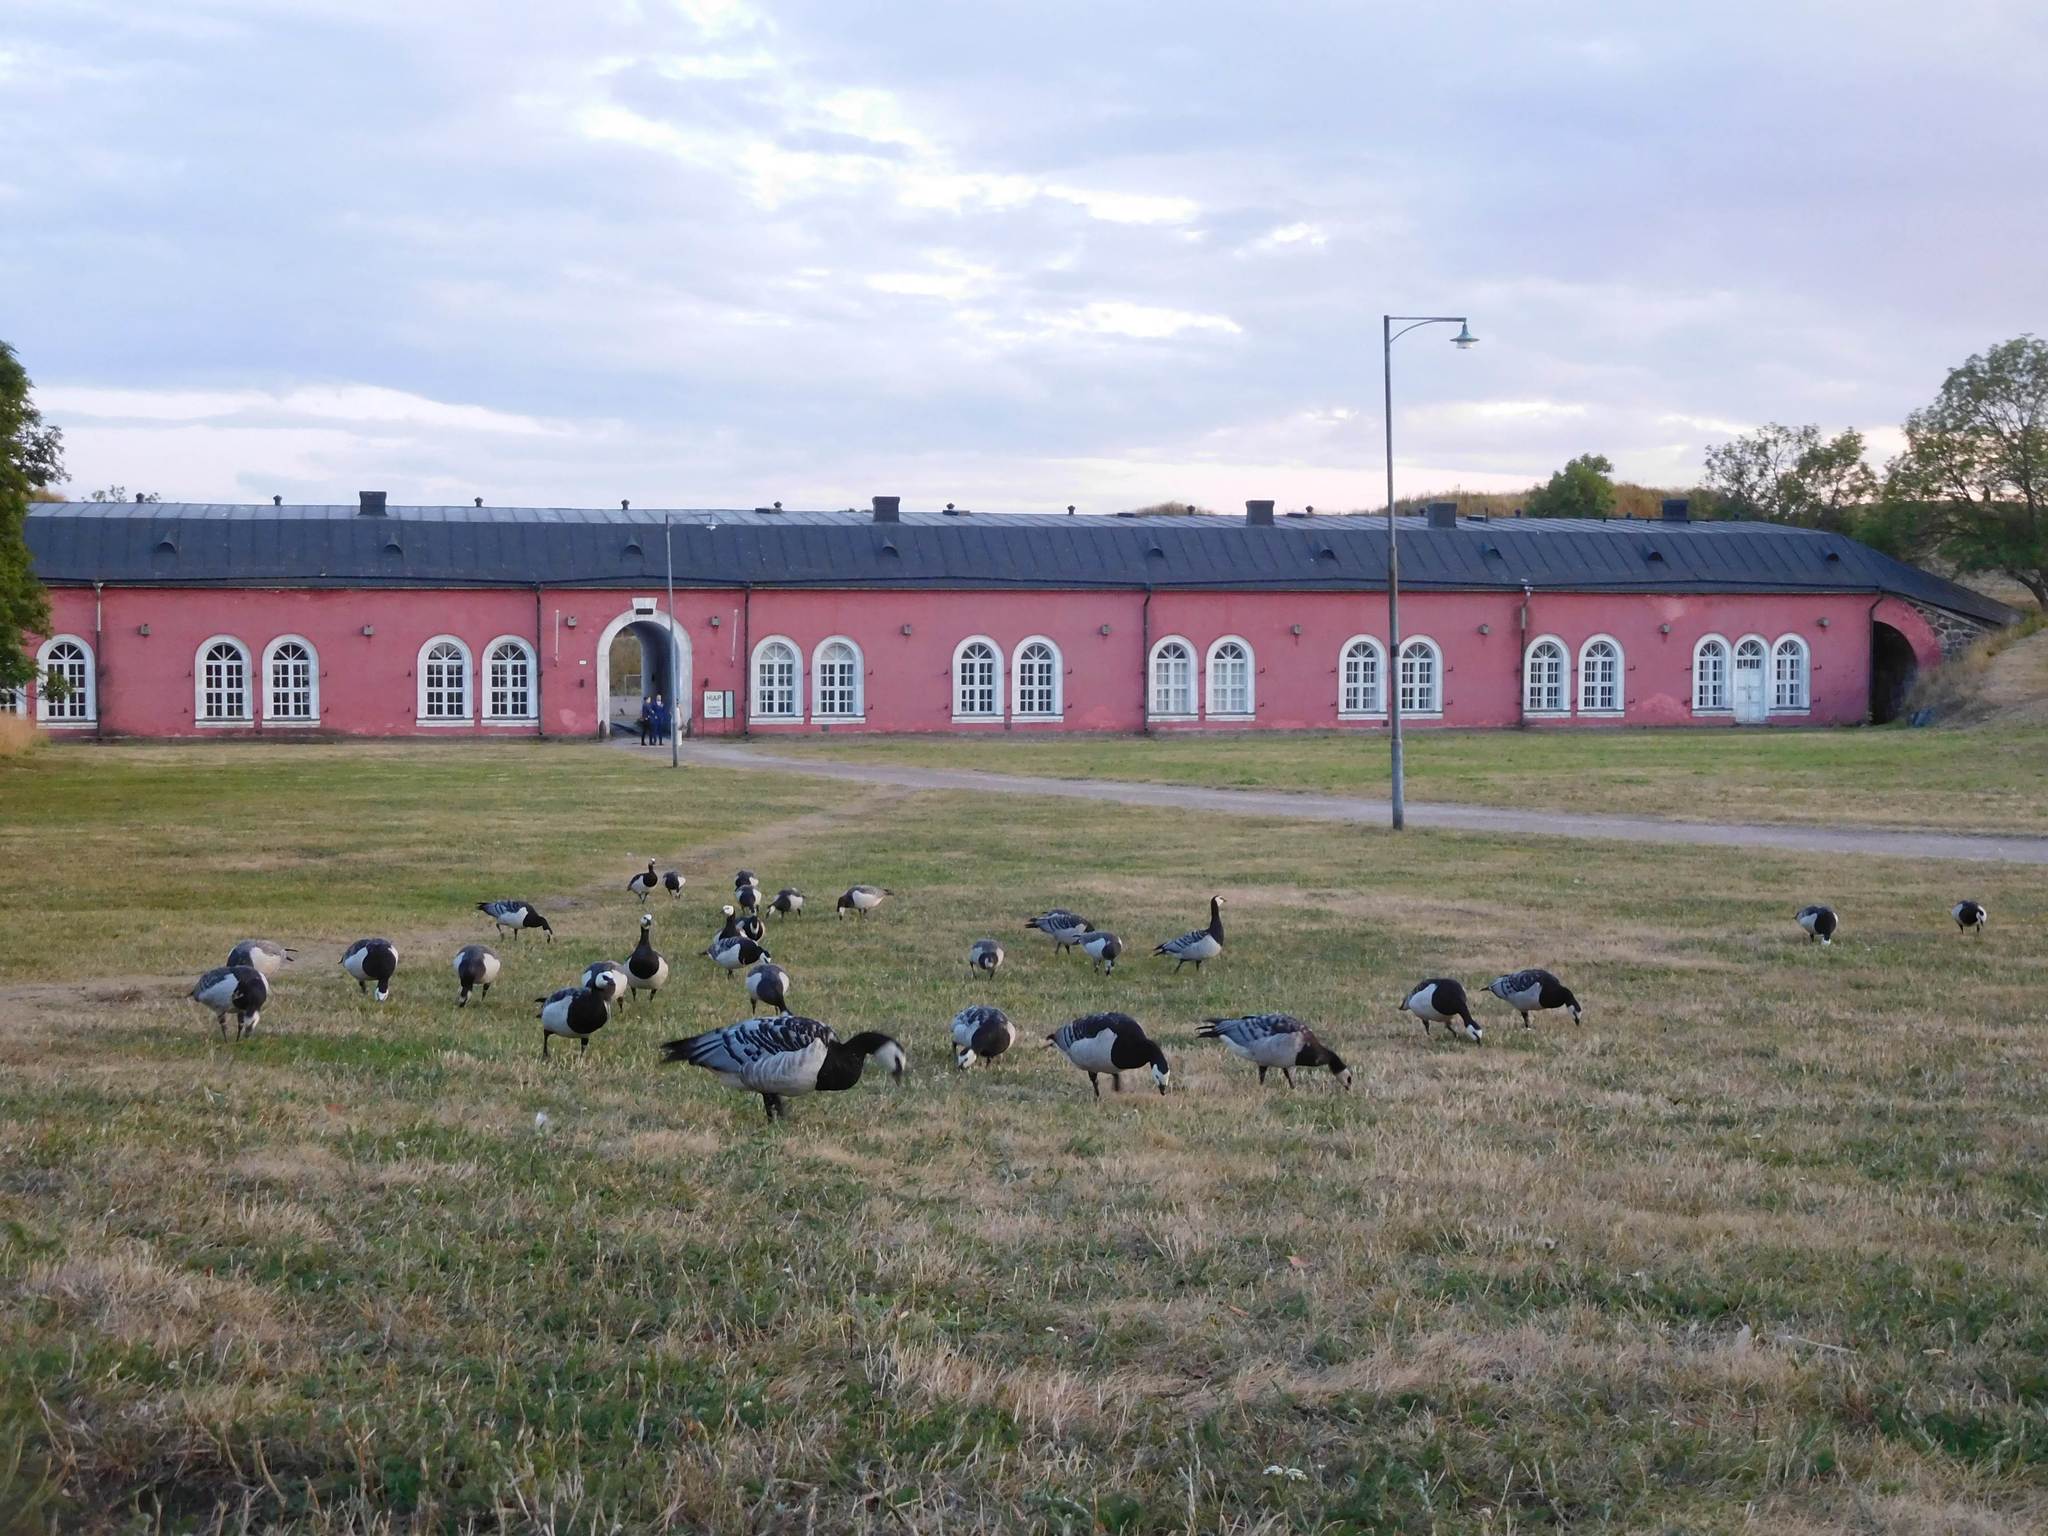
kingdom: Animalia
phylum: Chordata
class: Aves
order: Anseriformes
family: Anatidae
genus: Branta
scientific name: Branta leucopsis
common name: Barnacle goose
